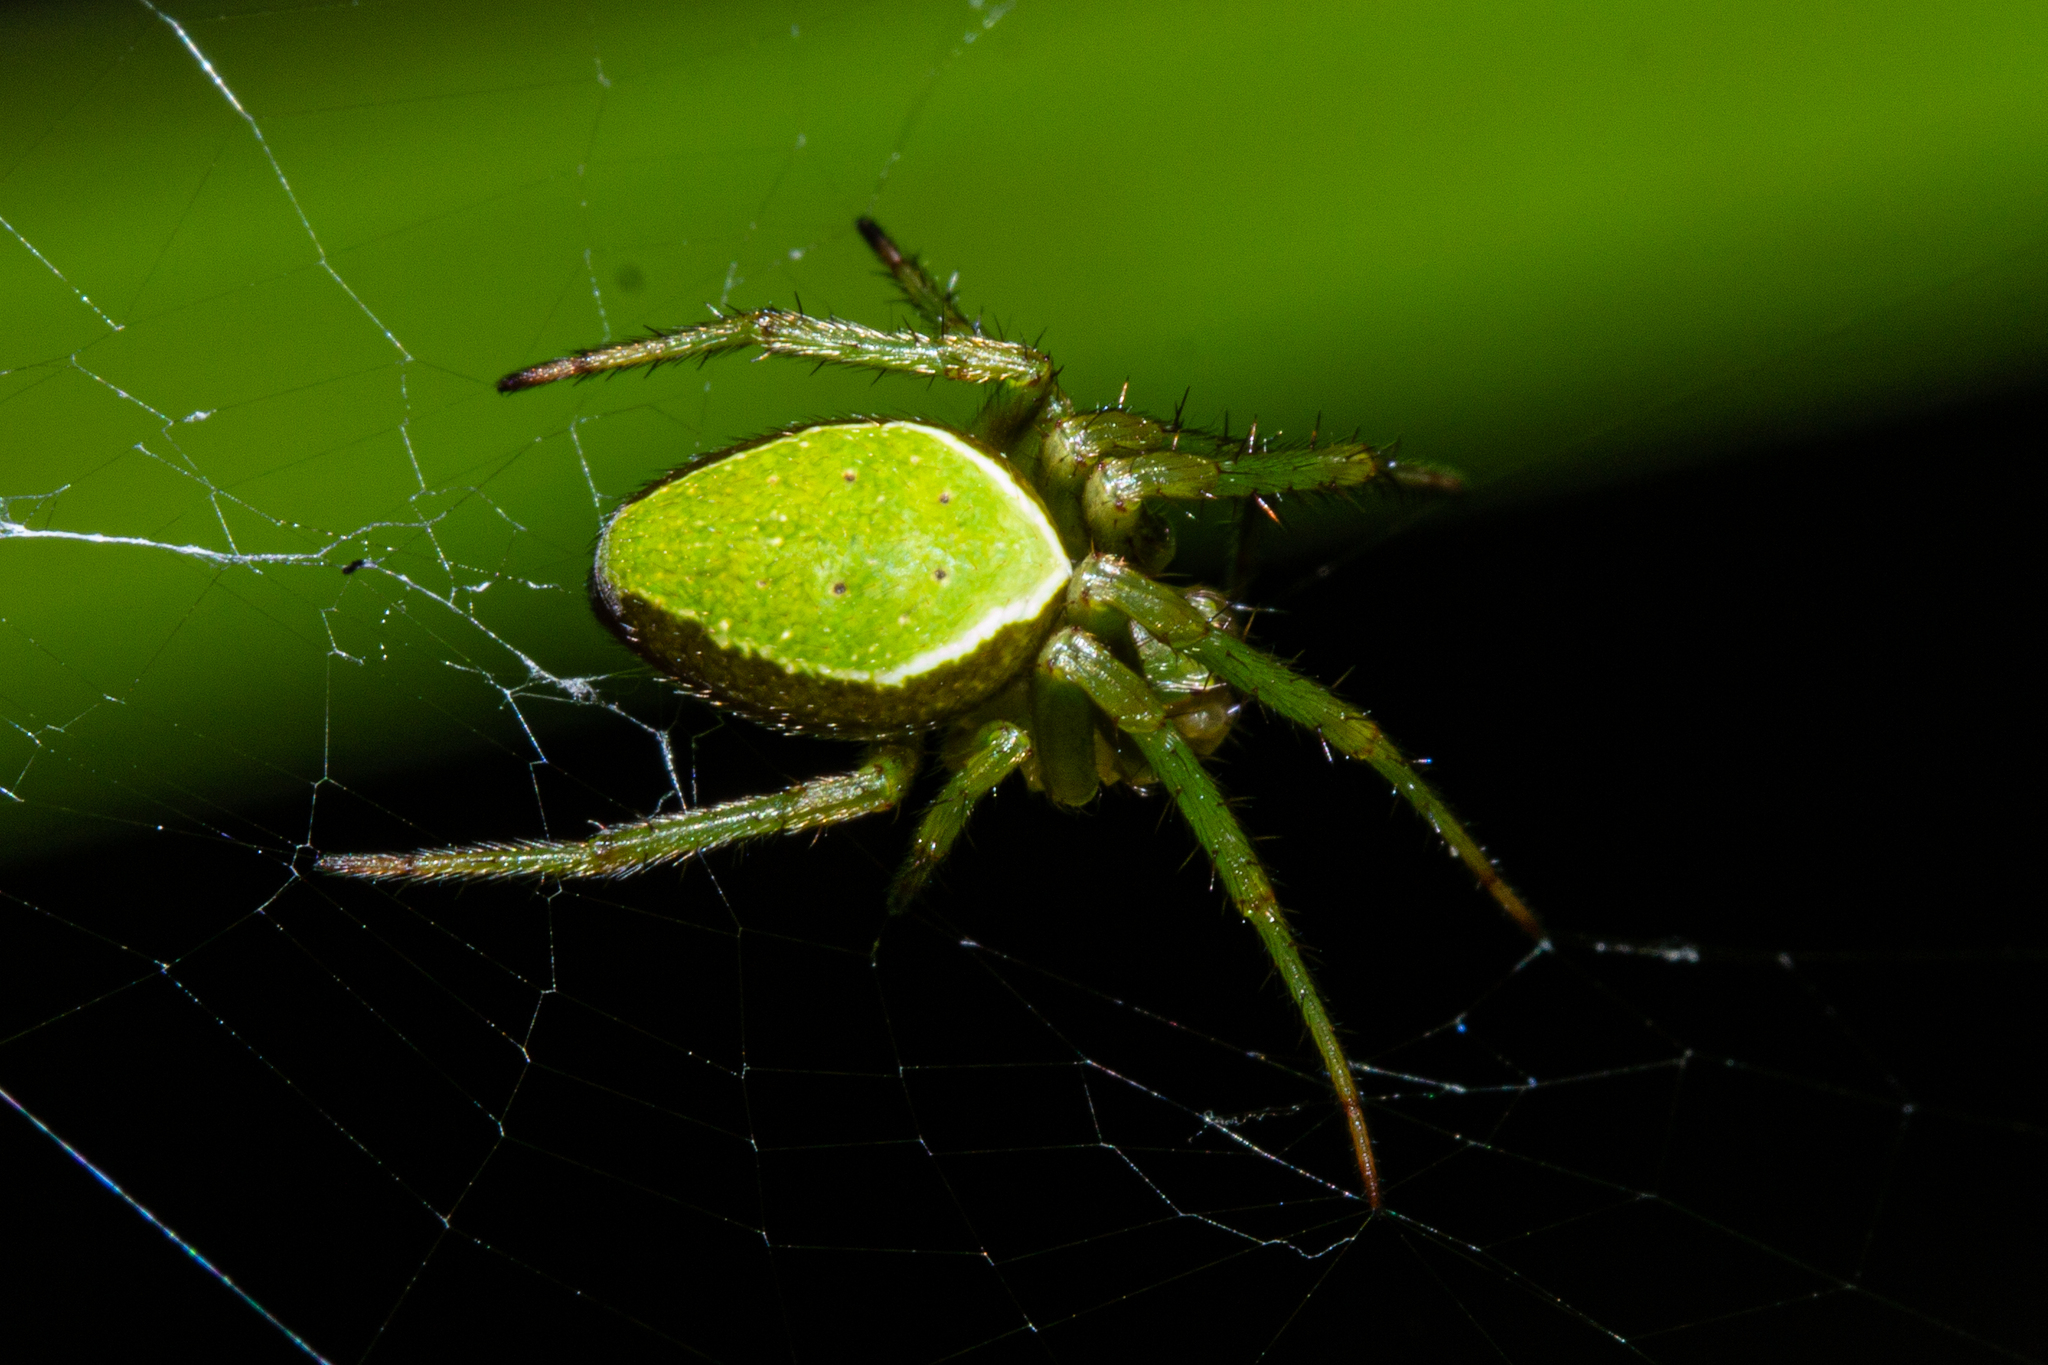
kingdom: Animalia
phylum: Arthropoda
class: Arachnida
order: Araneae
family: Araneidae
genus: Colaranea
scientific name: Colaranea viriditas
